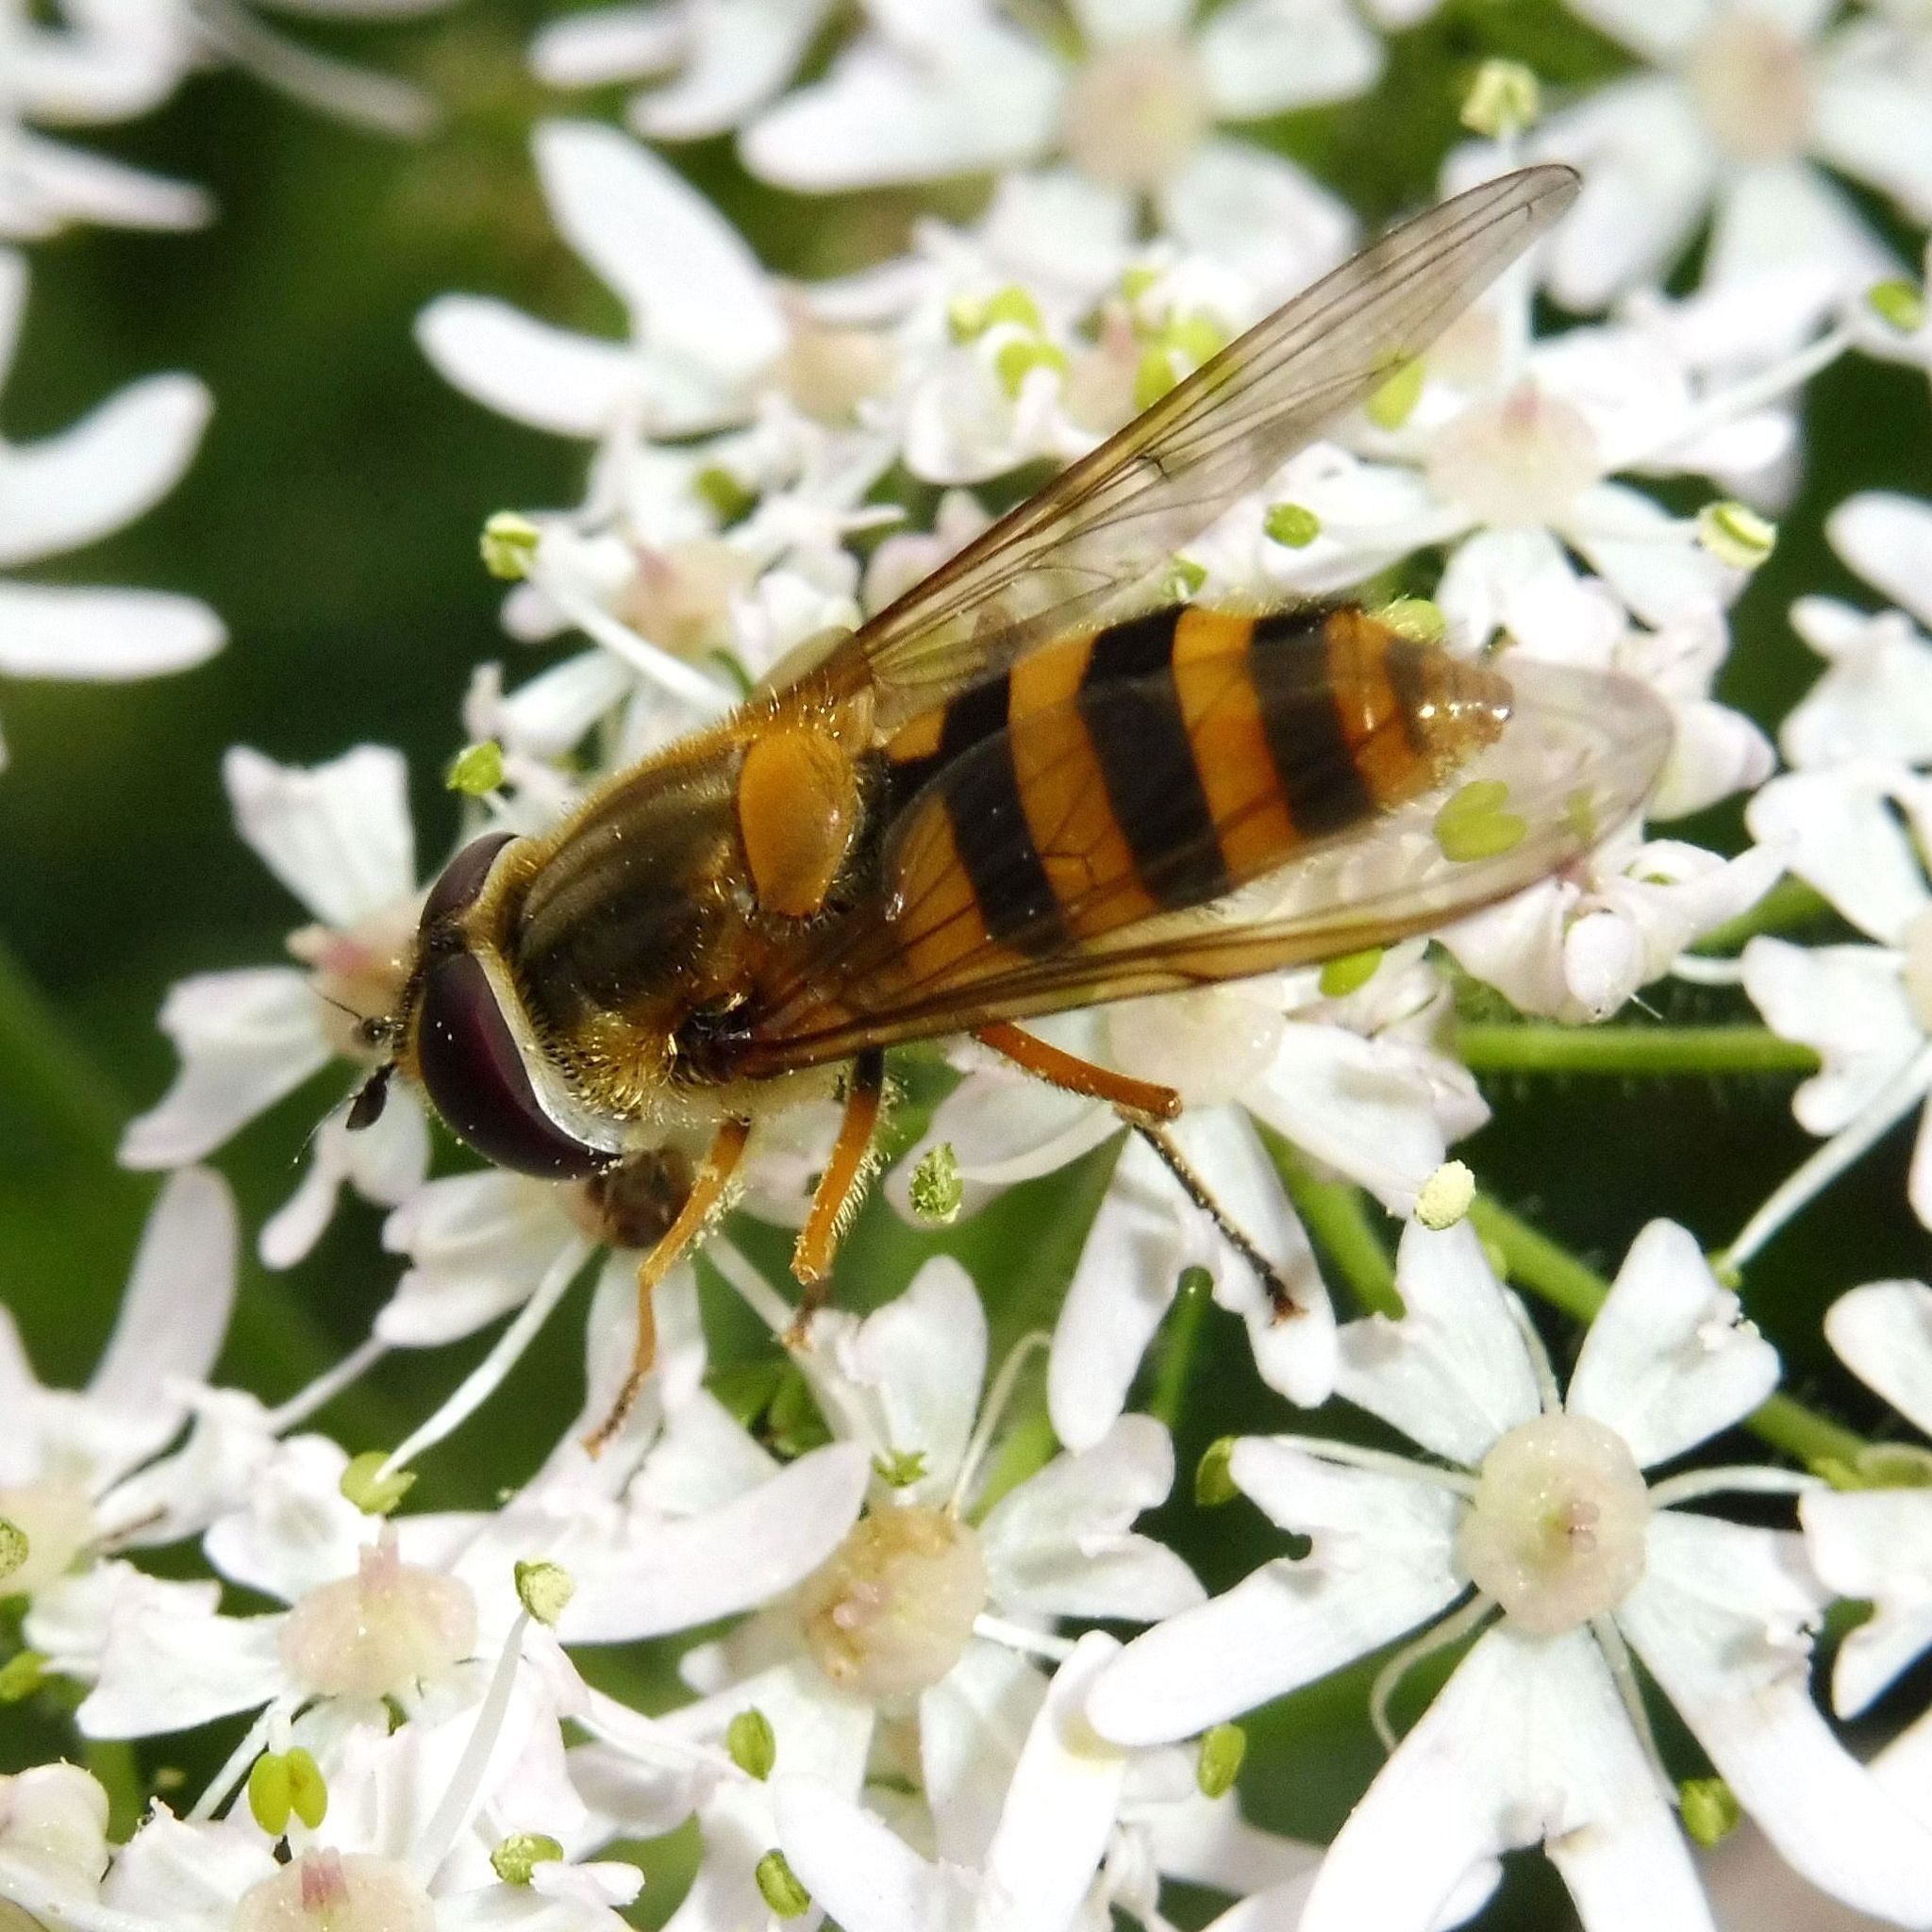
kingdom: Animalia
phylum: Arthropoda
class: Insecta
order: Diptera
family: Syrphidae
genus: Epistrophe
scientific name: Epistrophe grossulariae
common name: Black-horned smoothtail
